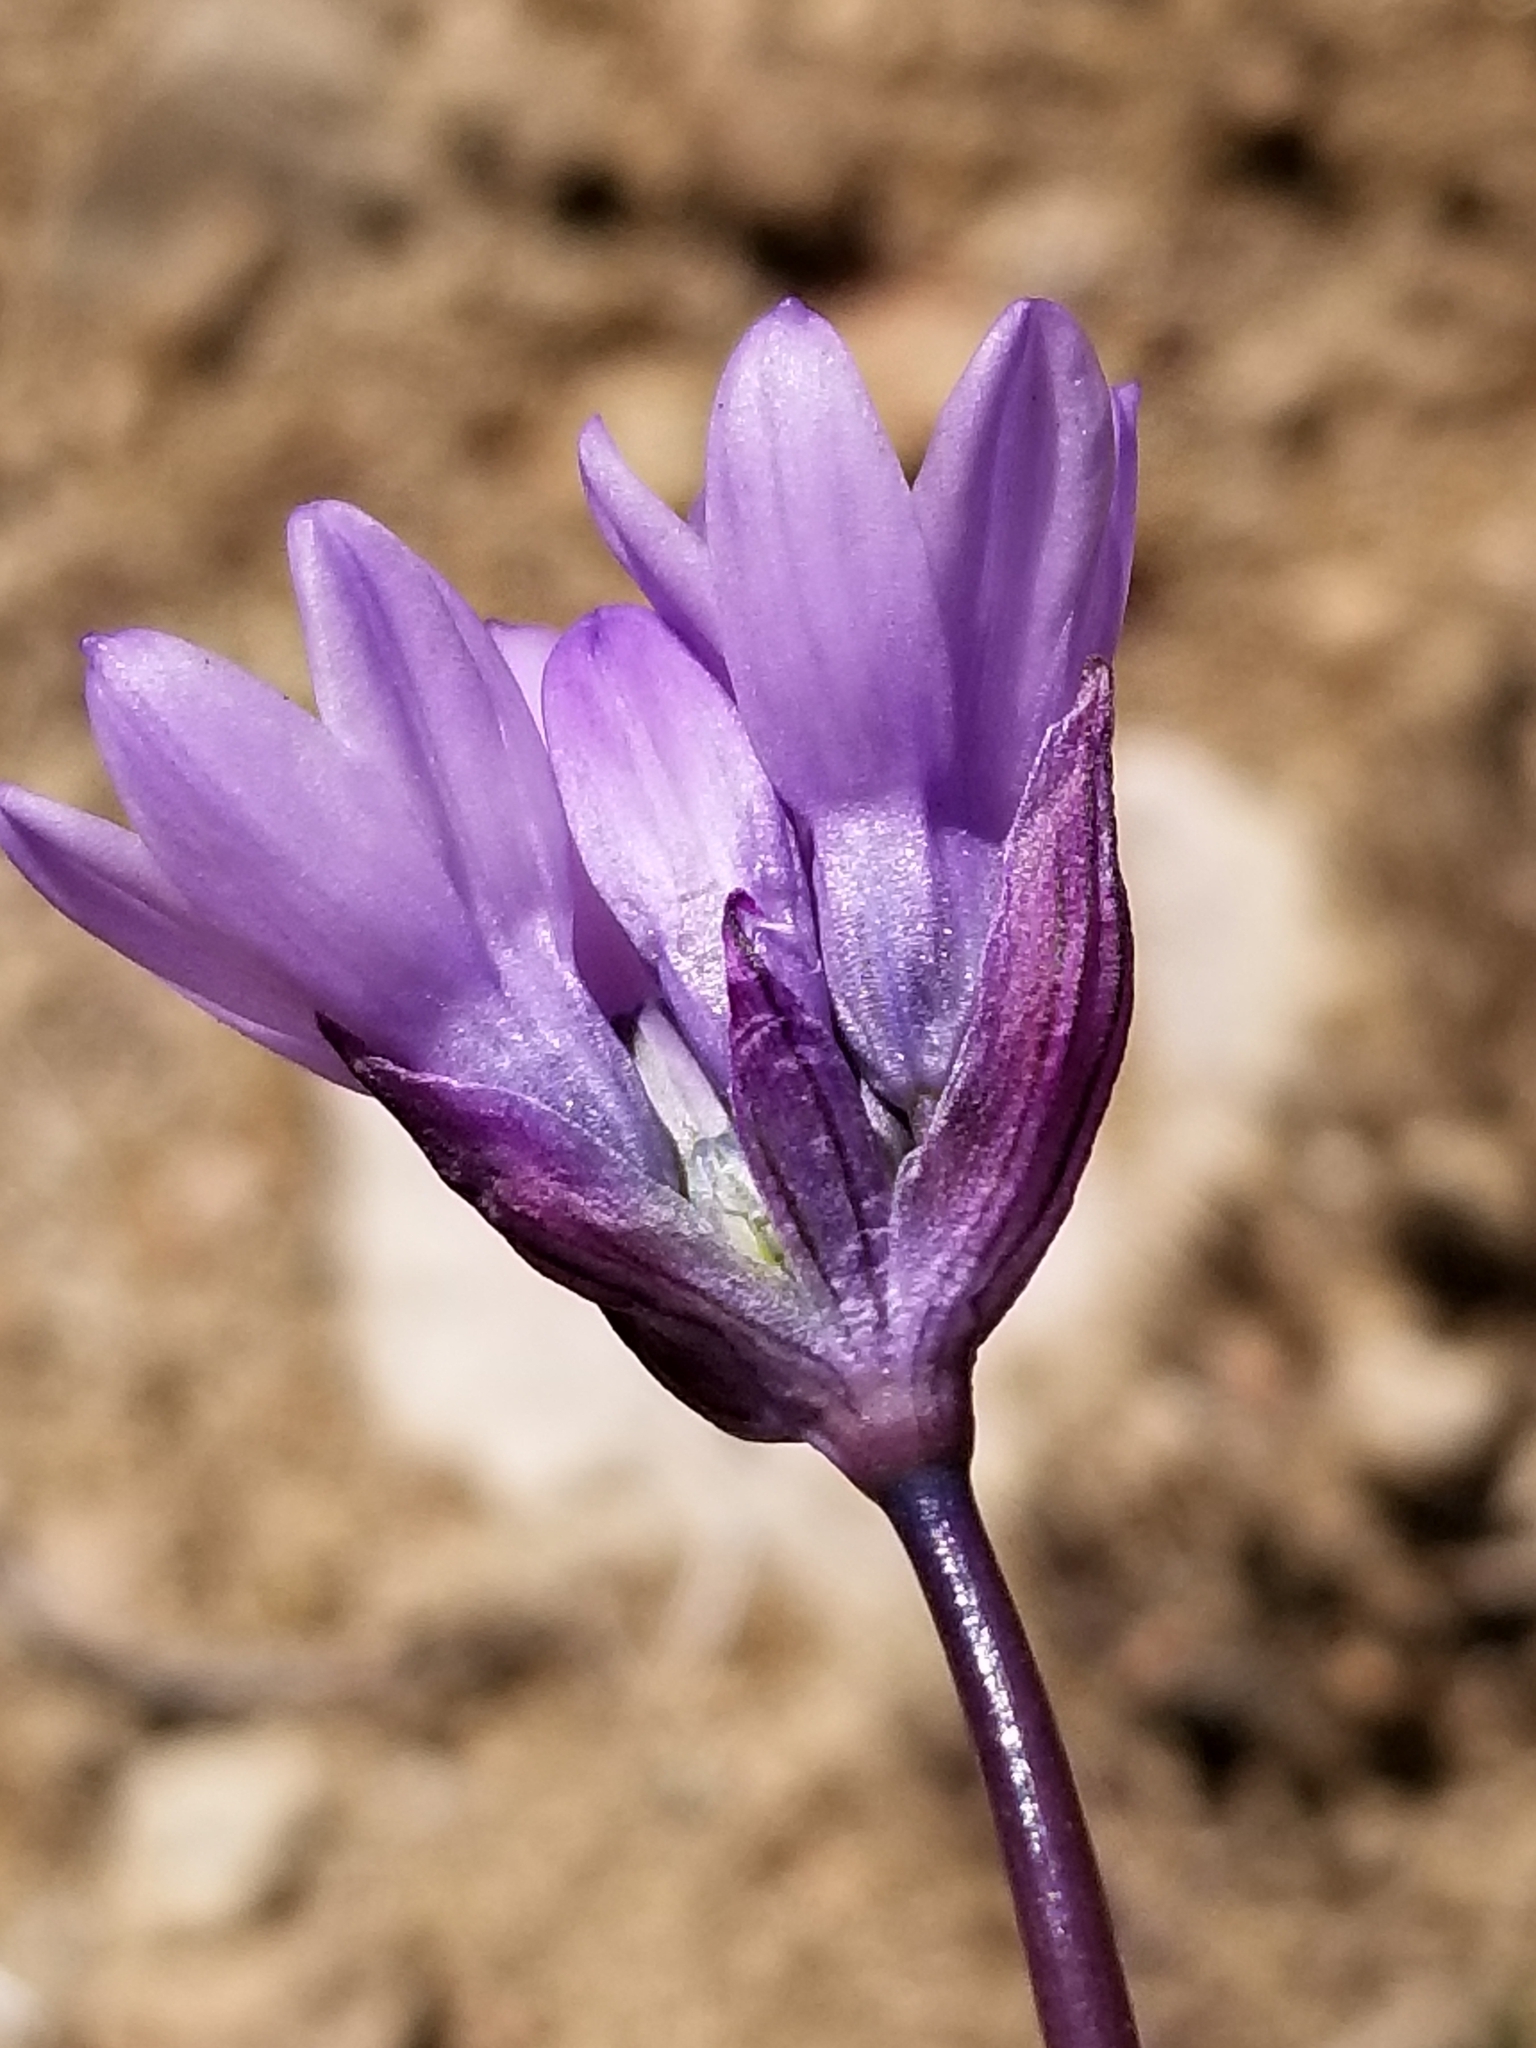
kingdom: Plantae
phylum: Tracheophyta
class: Liliopsida
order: Asparagales
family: Asparagaceae
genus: Dipterostemon
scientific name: Dipterostemon capitatus
